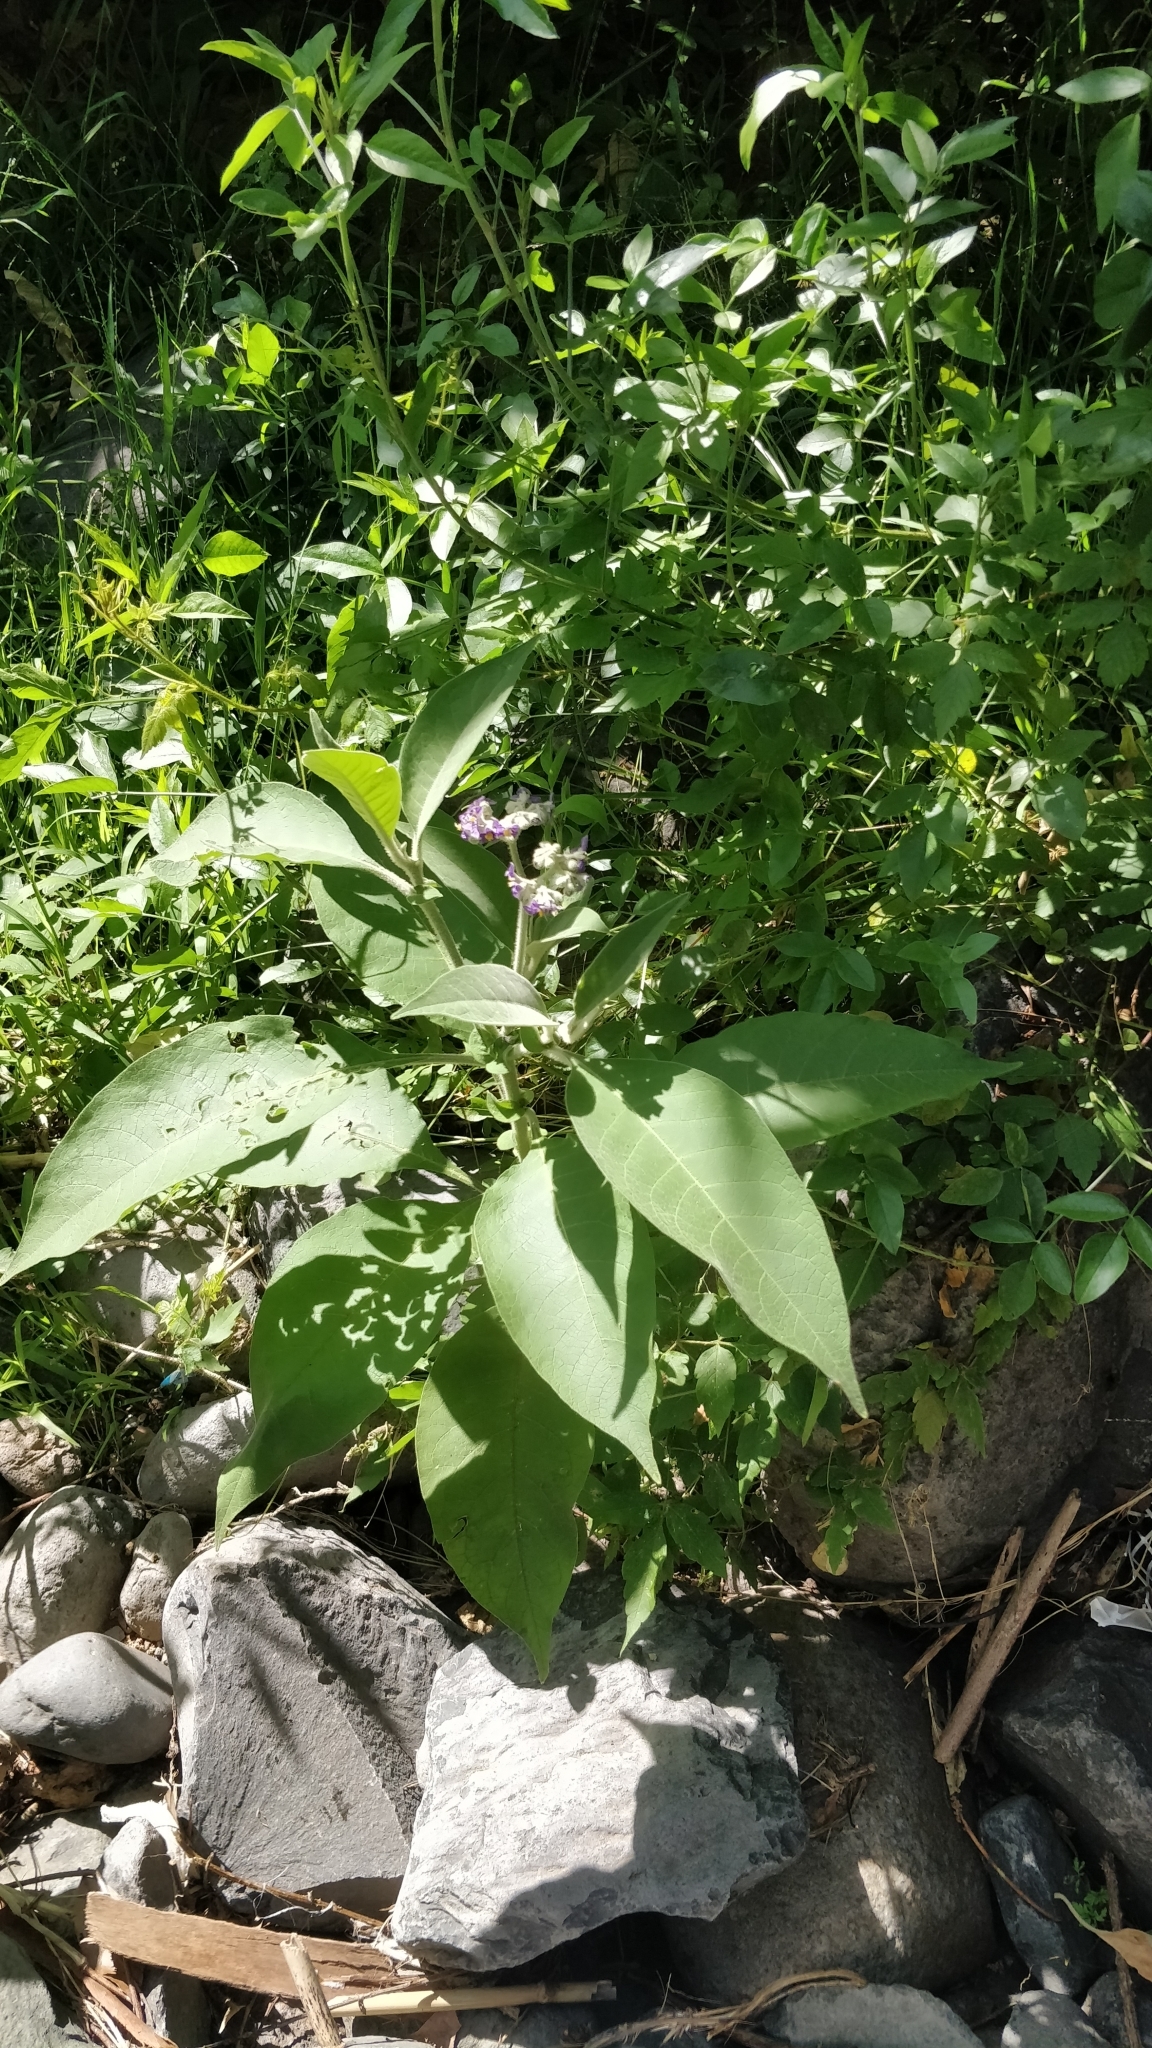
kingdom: Plantae
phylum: Tracheophyta
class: Magnoliopsida
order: Solanales
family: Solanaceae
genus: Solanum
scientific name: Solanum mauritianum
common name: Earleaf nightshade
